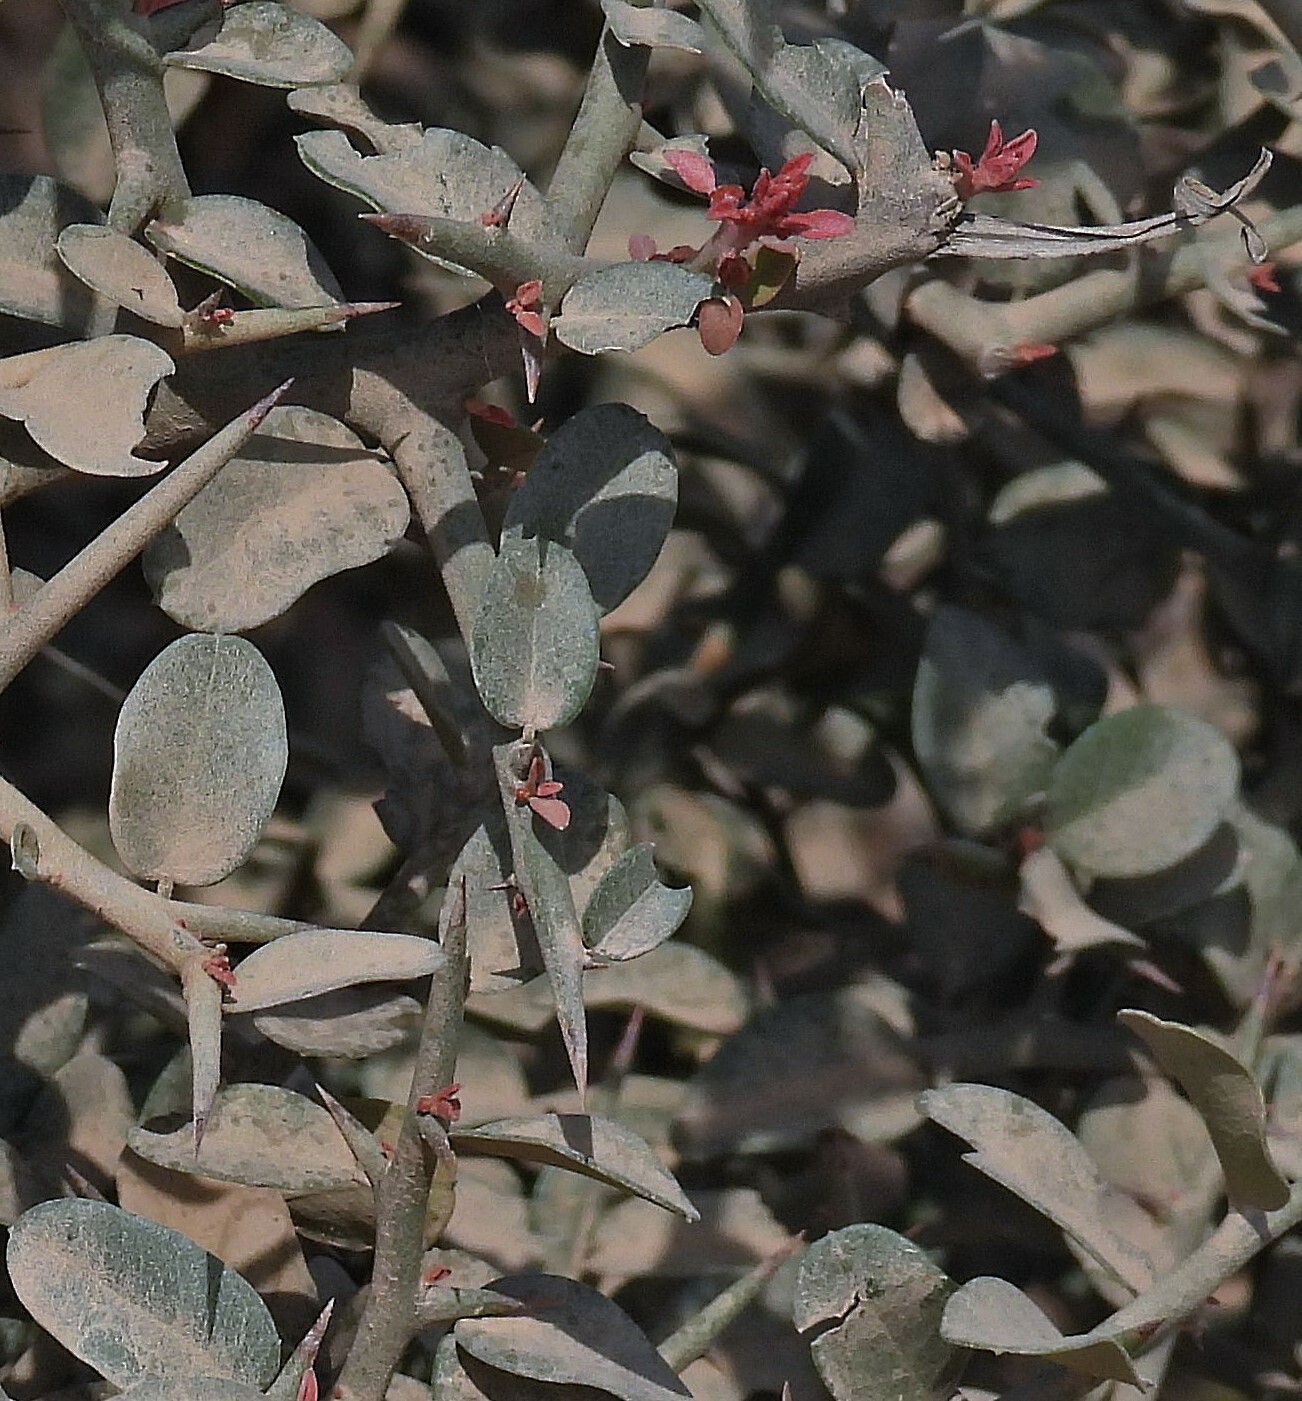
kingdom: Plantae
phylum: Tracheophyta
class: Magnoliopsida
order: Sapindales
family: Simaroubaceae
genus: Castela
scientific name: Castela coccinea
